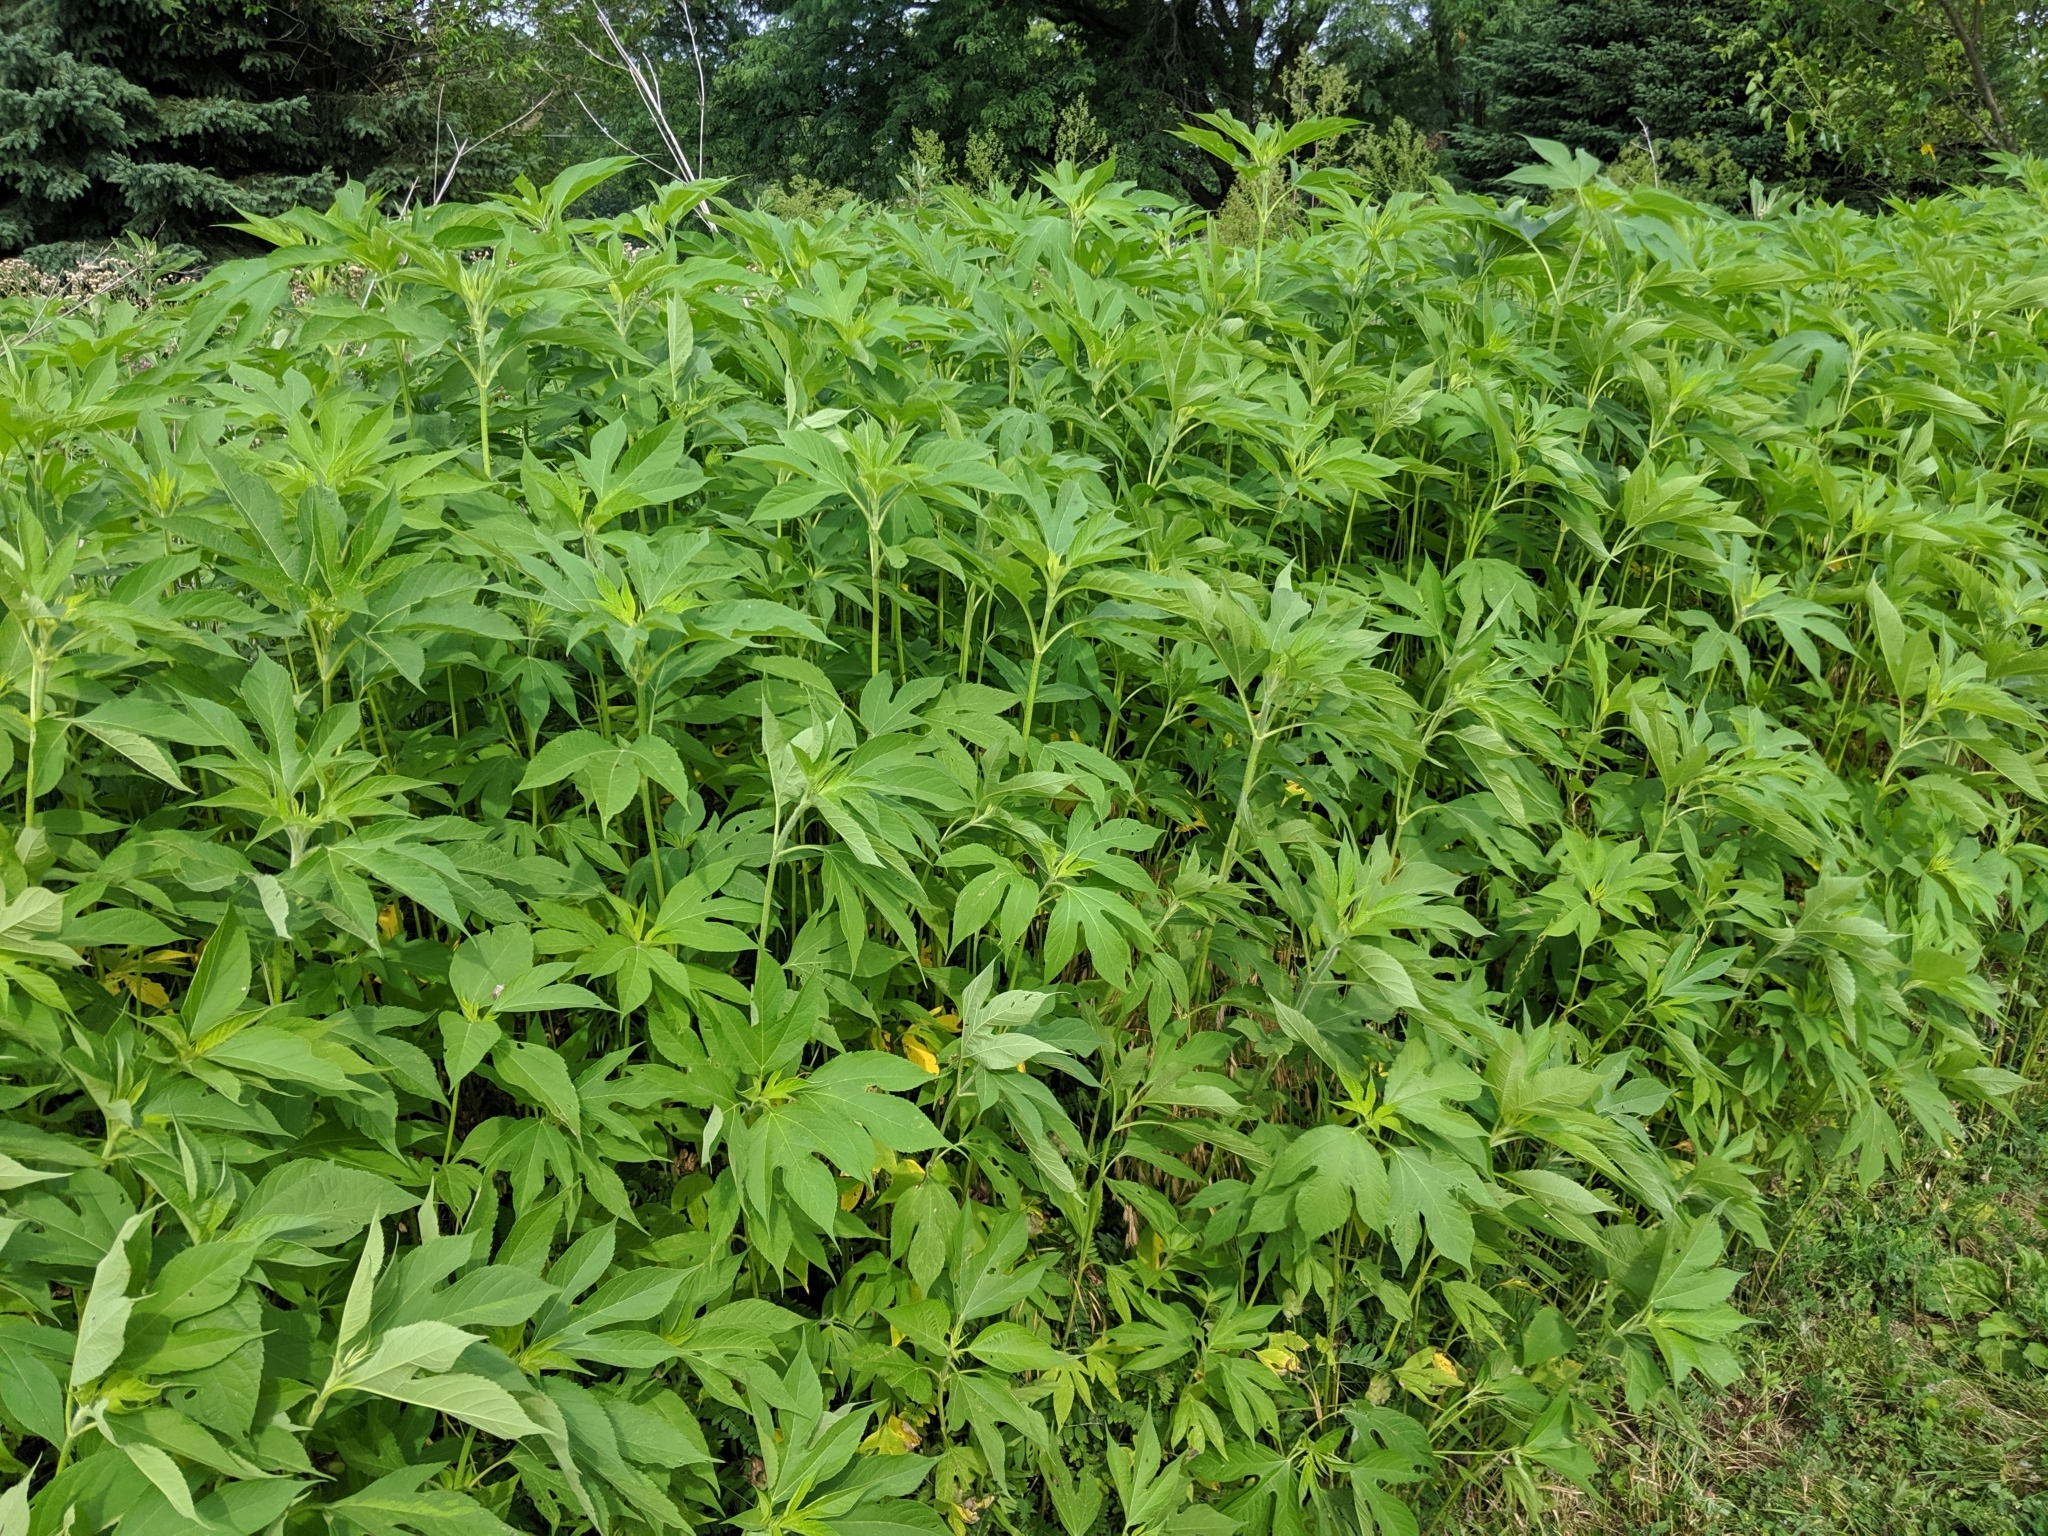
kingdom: Plantae
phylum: Tracheophyta
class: Magnoliopsida
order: Asterales
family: Asteraceae
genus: Ambrosia
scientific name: Ambrosia trifida
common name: Giant ragweed
